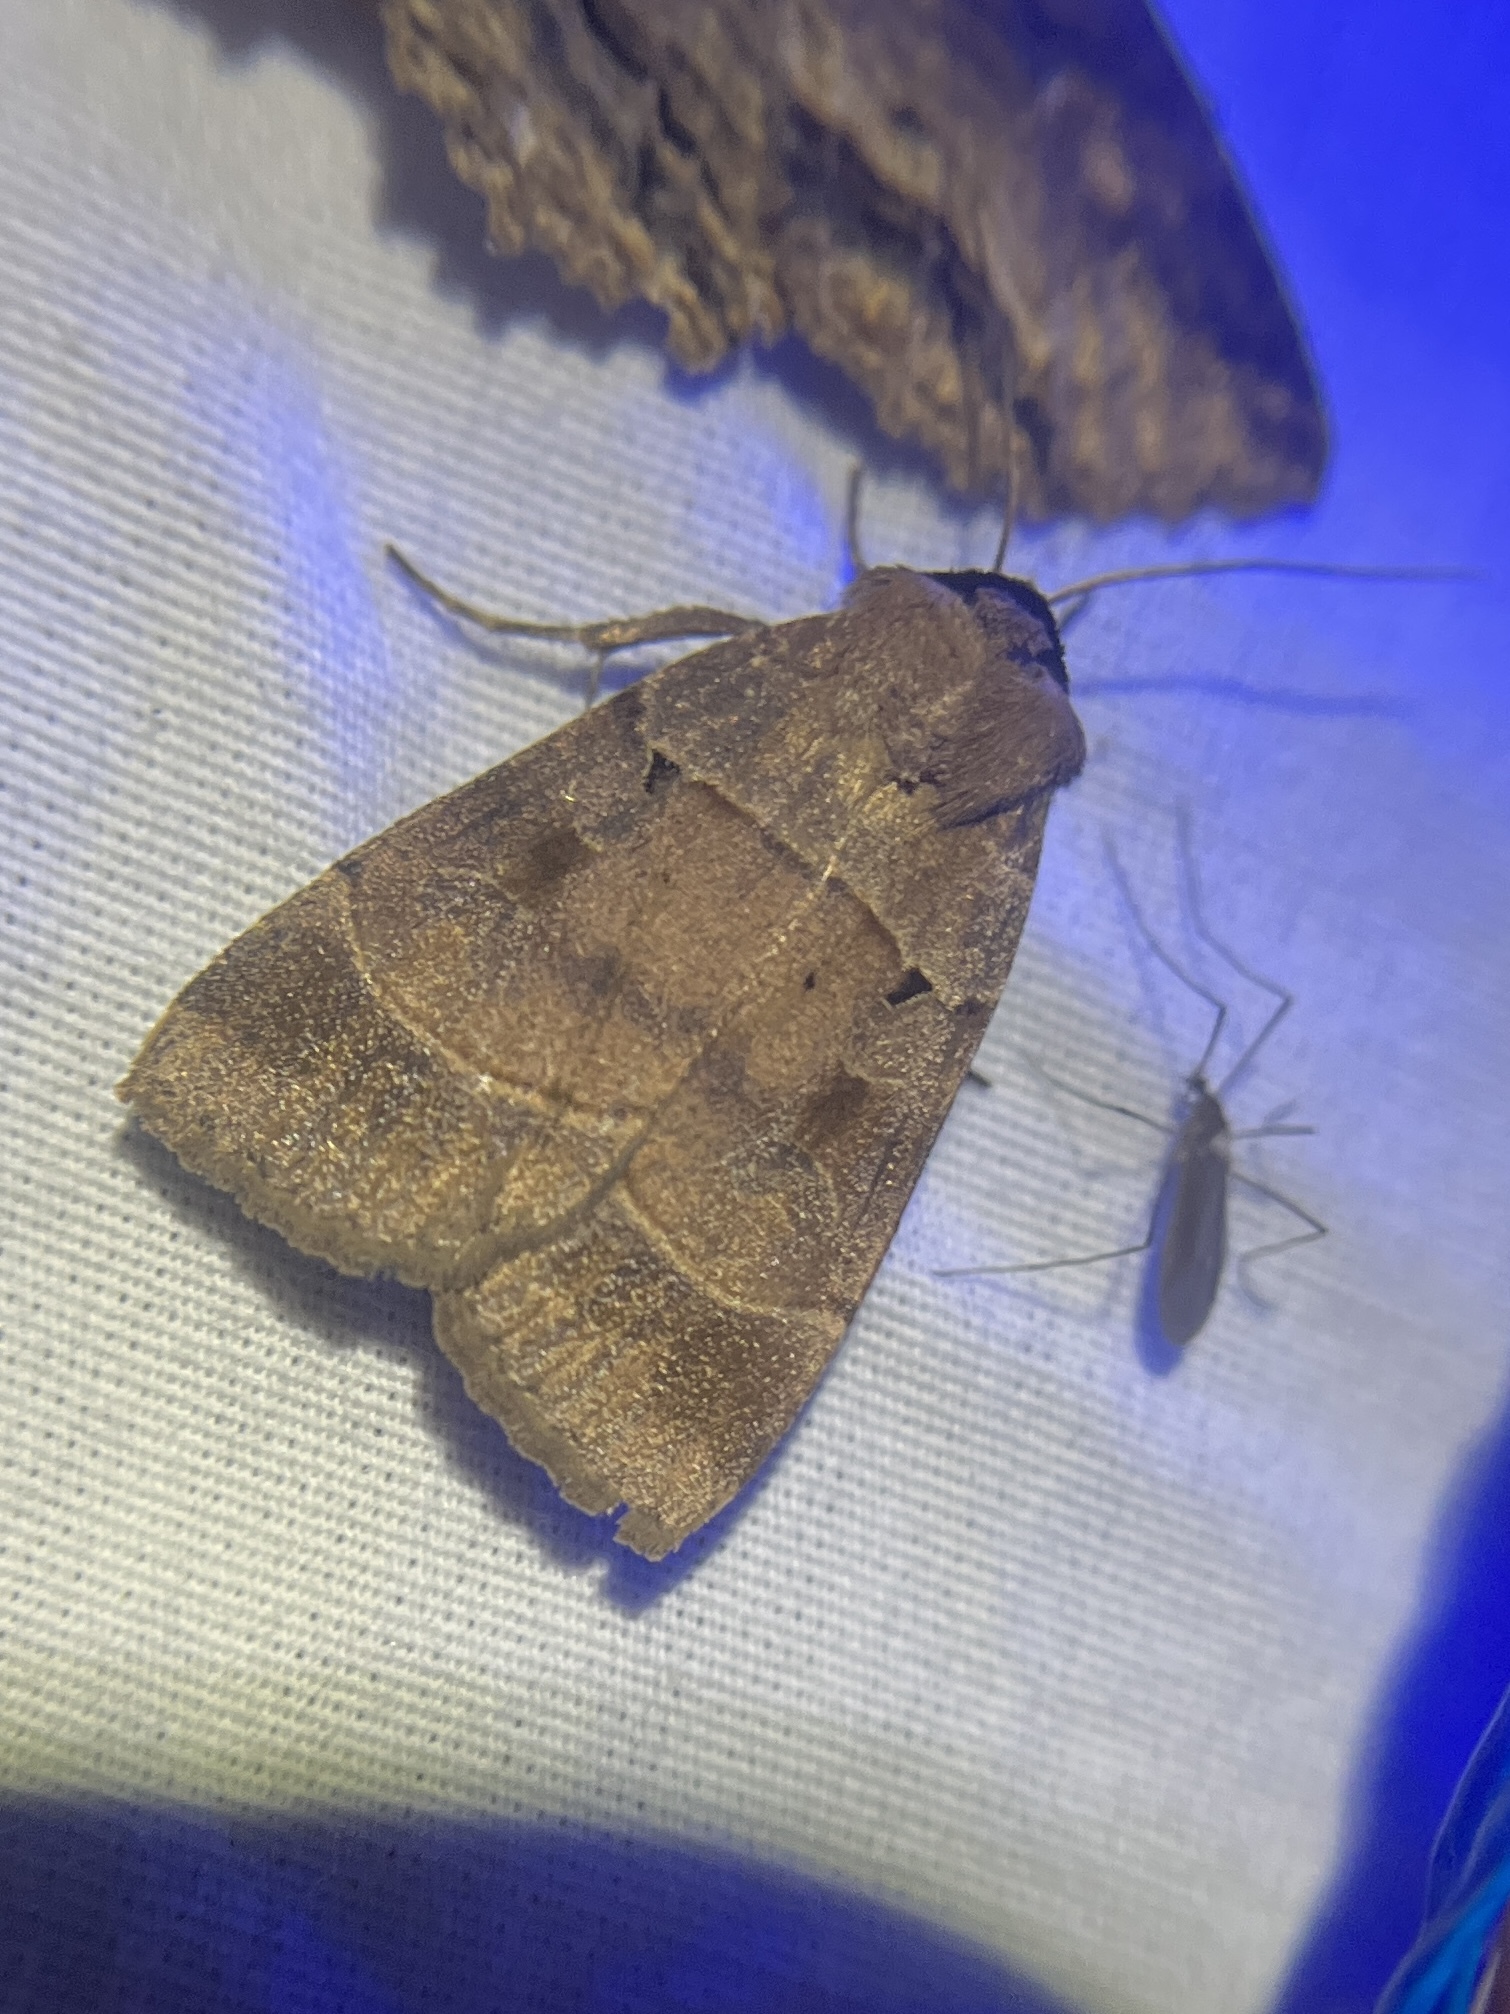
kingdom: Animalia
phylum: Arthropoda
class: Insecta
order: Lepidoptera
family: Noctuidae
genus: Agnorisma
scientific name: Agnorisma badinodis
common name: Pale-banded dart
